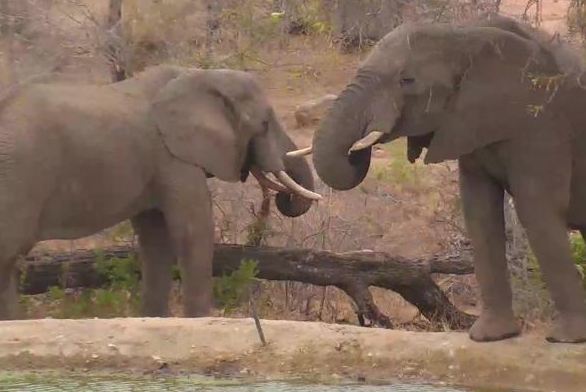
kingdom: Animalia
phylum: Chordata
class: Mammalia
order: Proboscidea
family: Elephantidae
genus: Loxodonta
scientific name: Loxodonta africana
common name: African elephant
